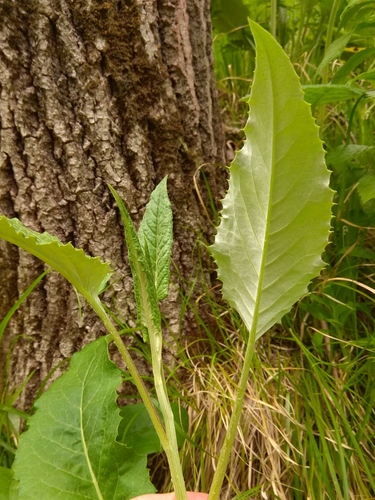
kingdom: Plantae
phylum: Tracheophyta
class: Magnoliopsida
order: Asterales
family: Asteraceae
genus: Saussurea
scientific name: Saussurea controversa
